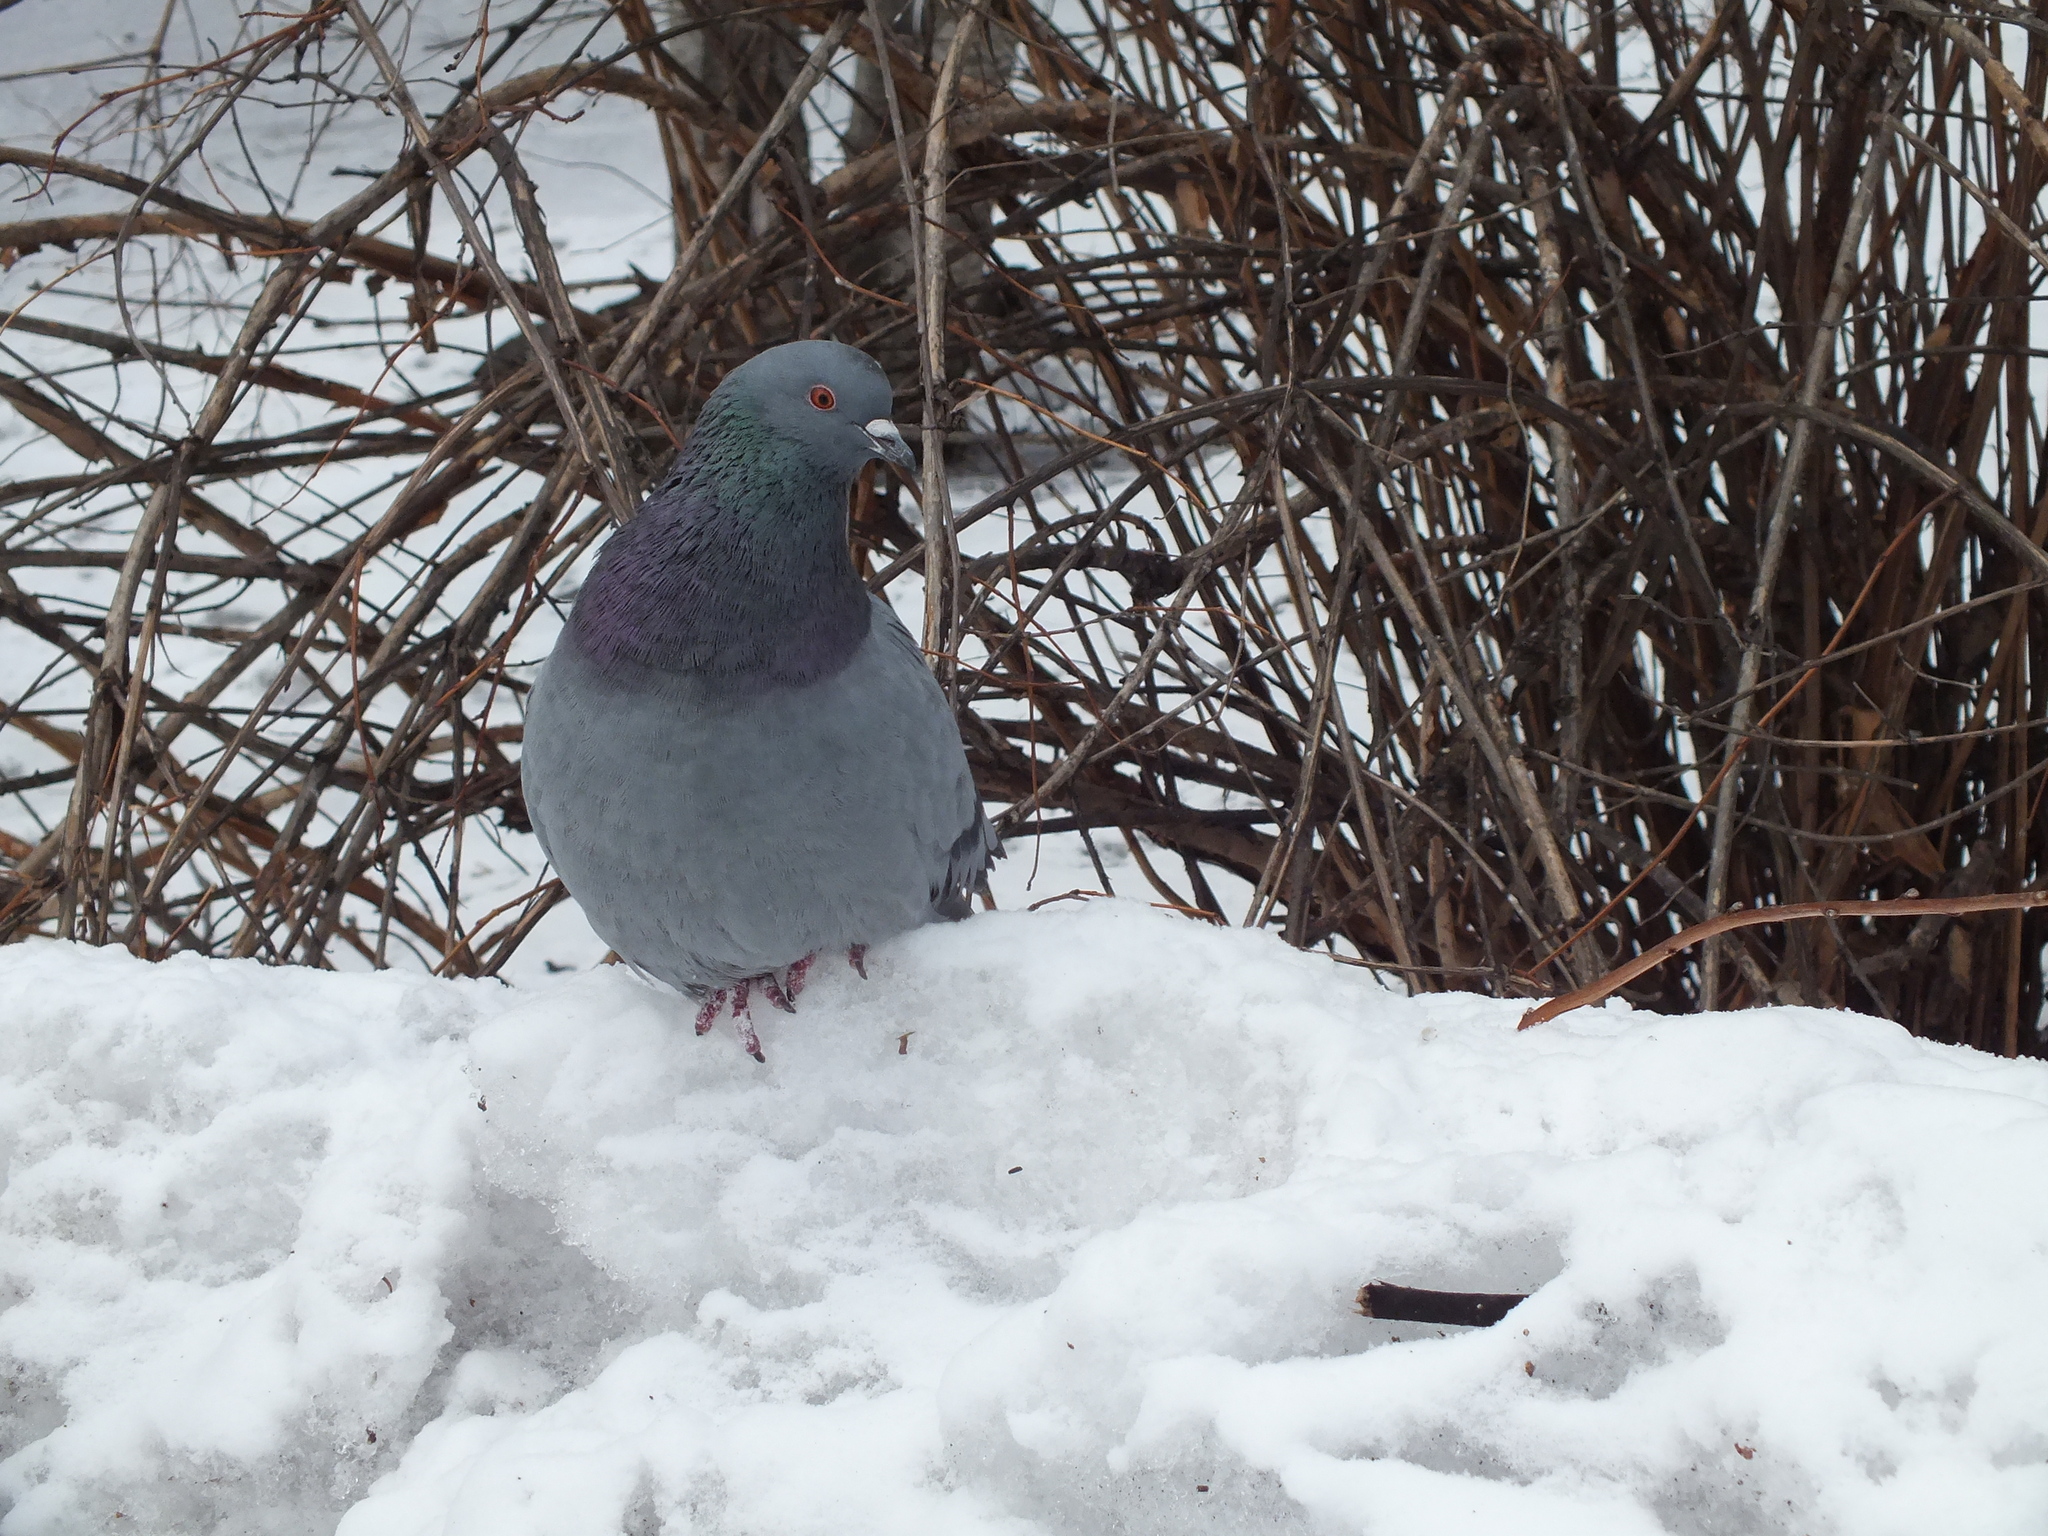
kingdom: Animalia
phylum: Chordata
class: Aves
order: Columbiformes
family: Columbidae
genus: Columba
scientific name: Columba livia
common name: Rock pigeon
